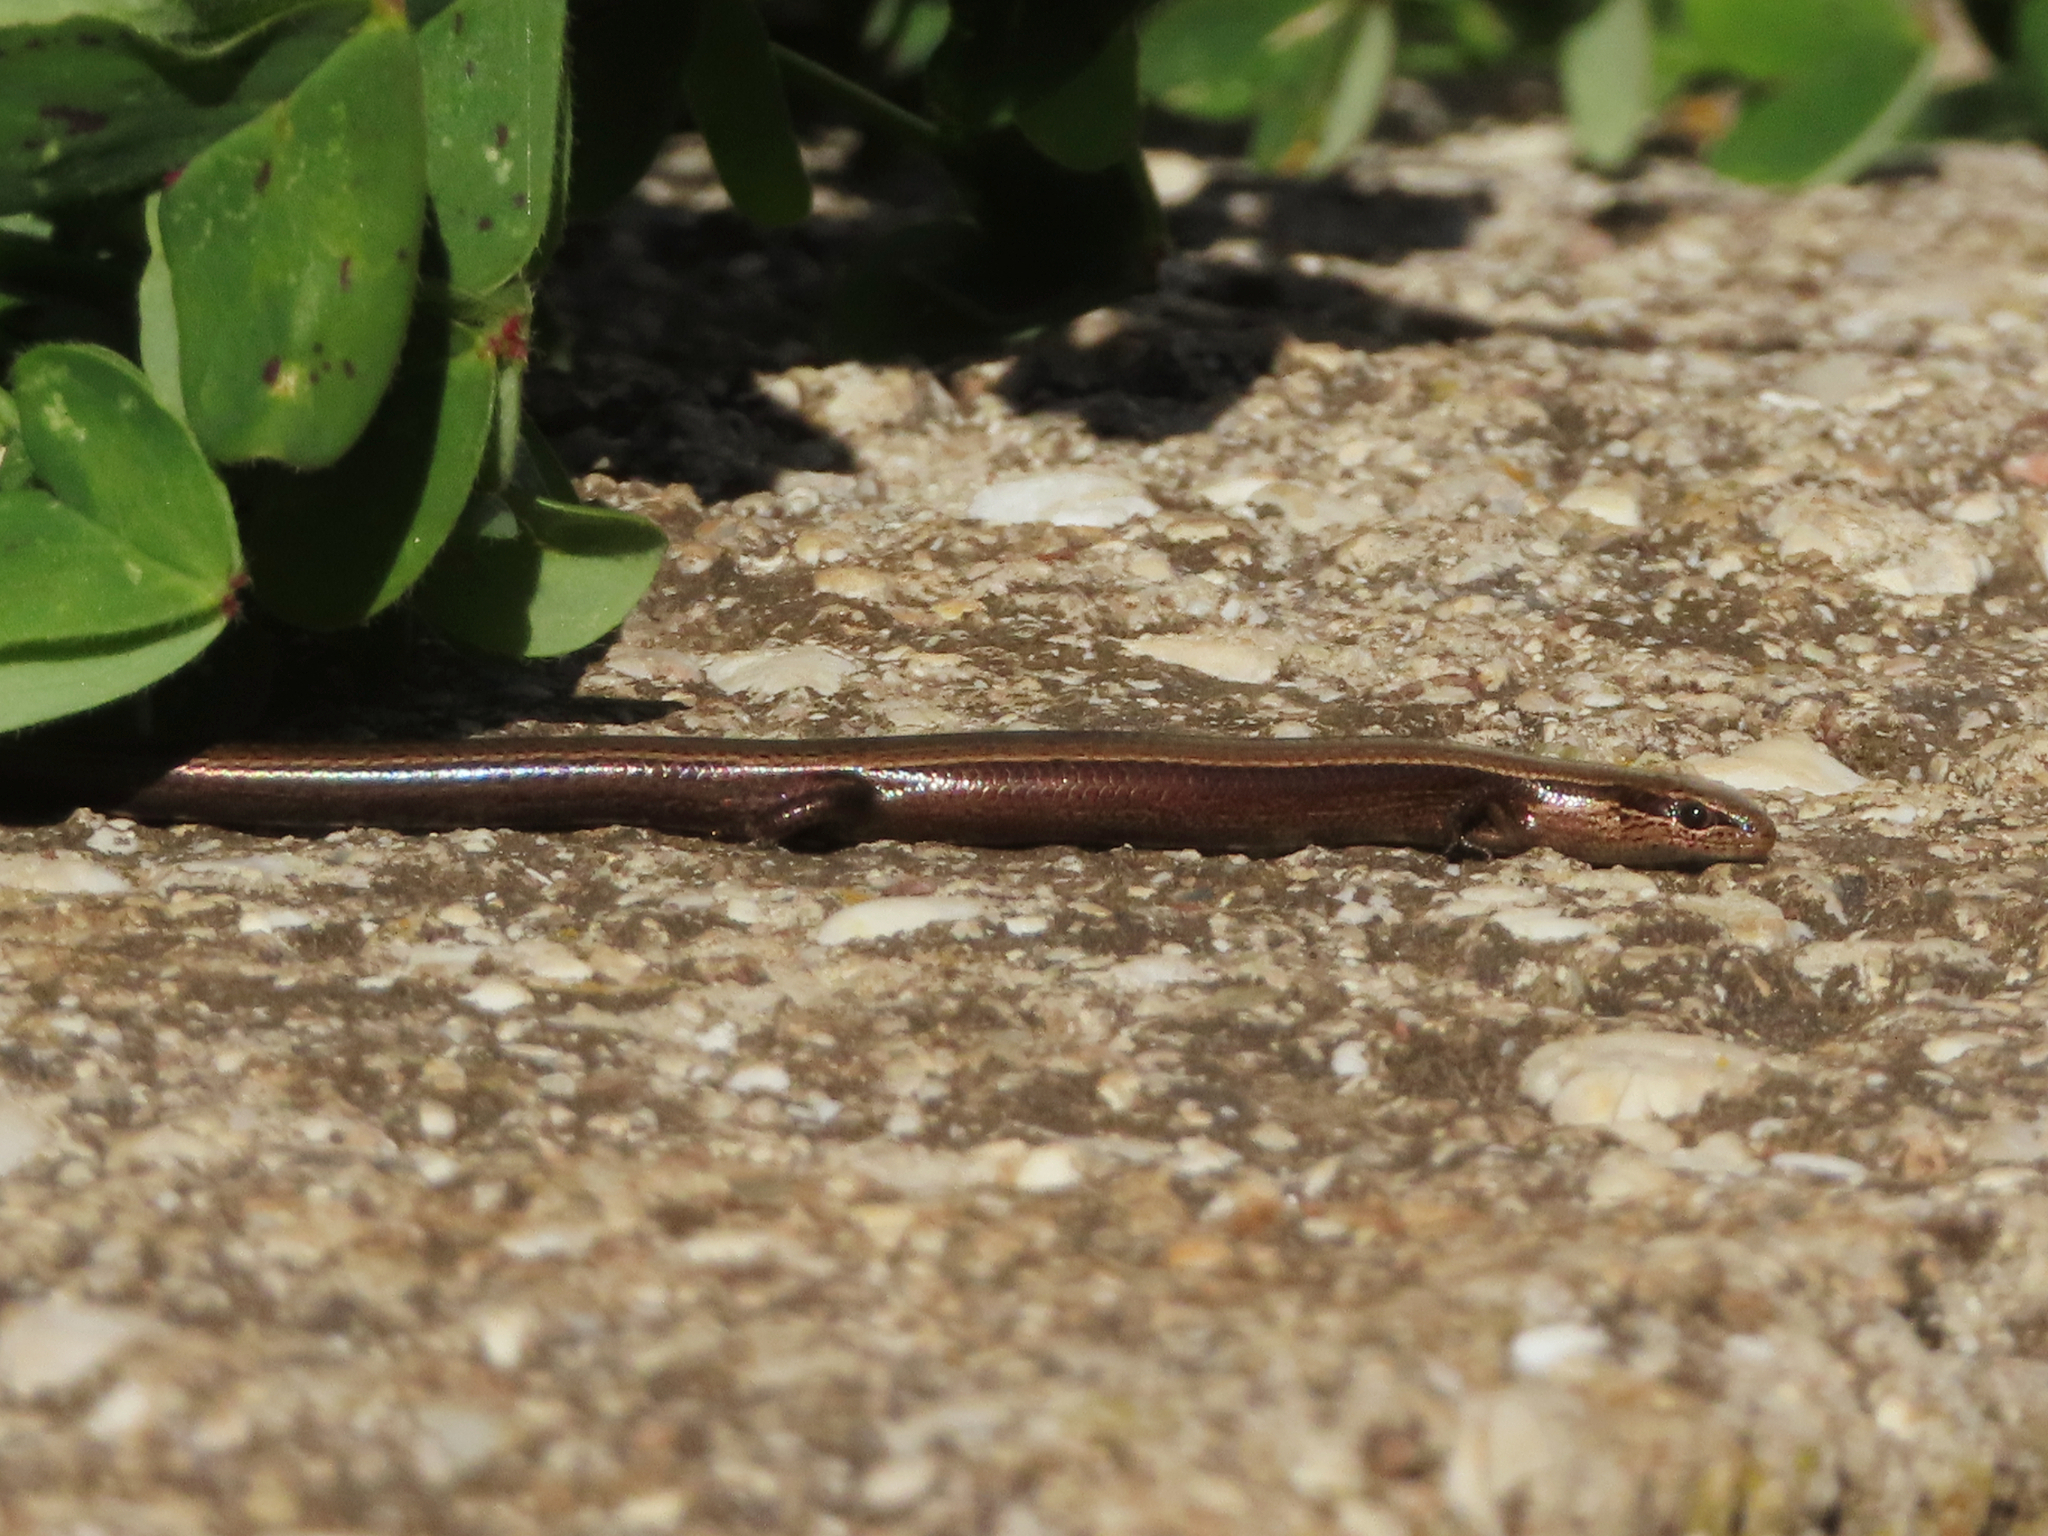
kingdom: Animalia
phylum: Chordata
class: Squamata
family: Scincidae
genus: Ablepharus
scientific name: Ablepharus kitaibelii
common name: Juniper skink
